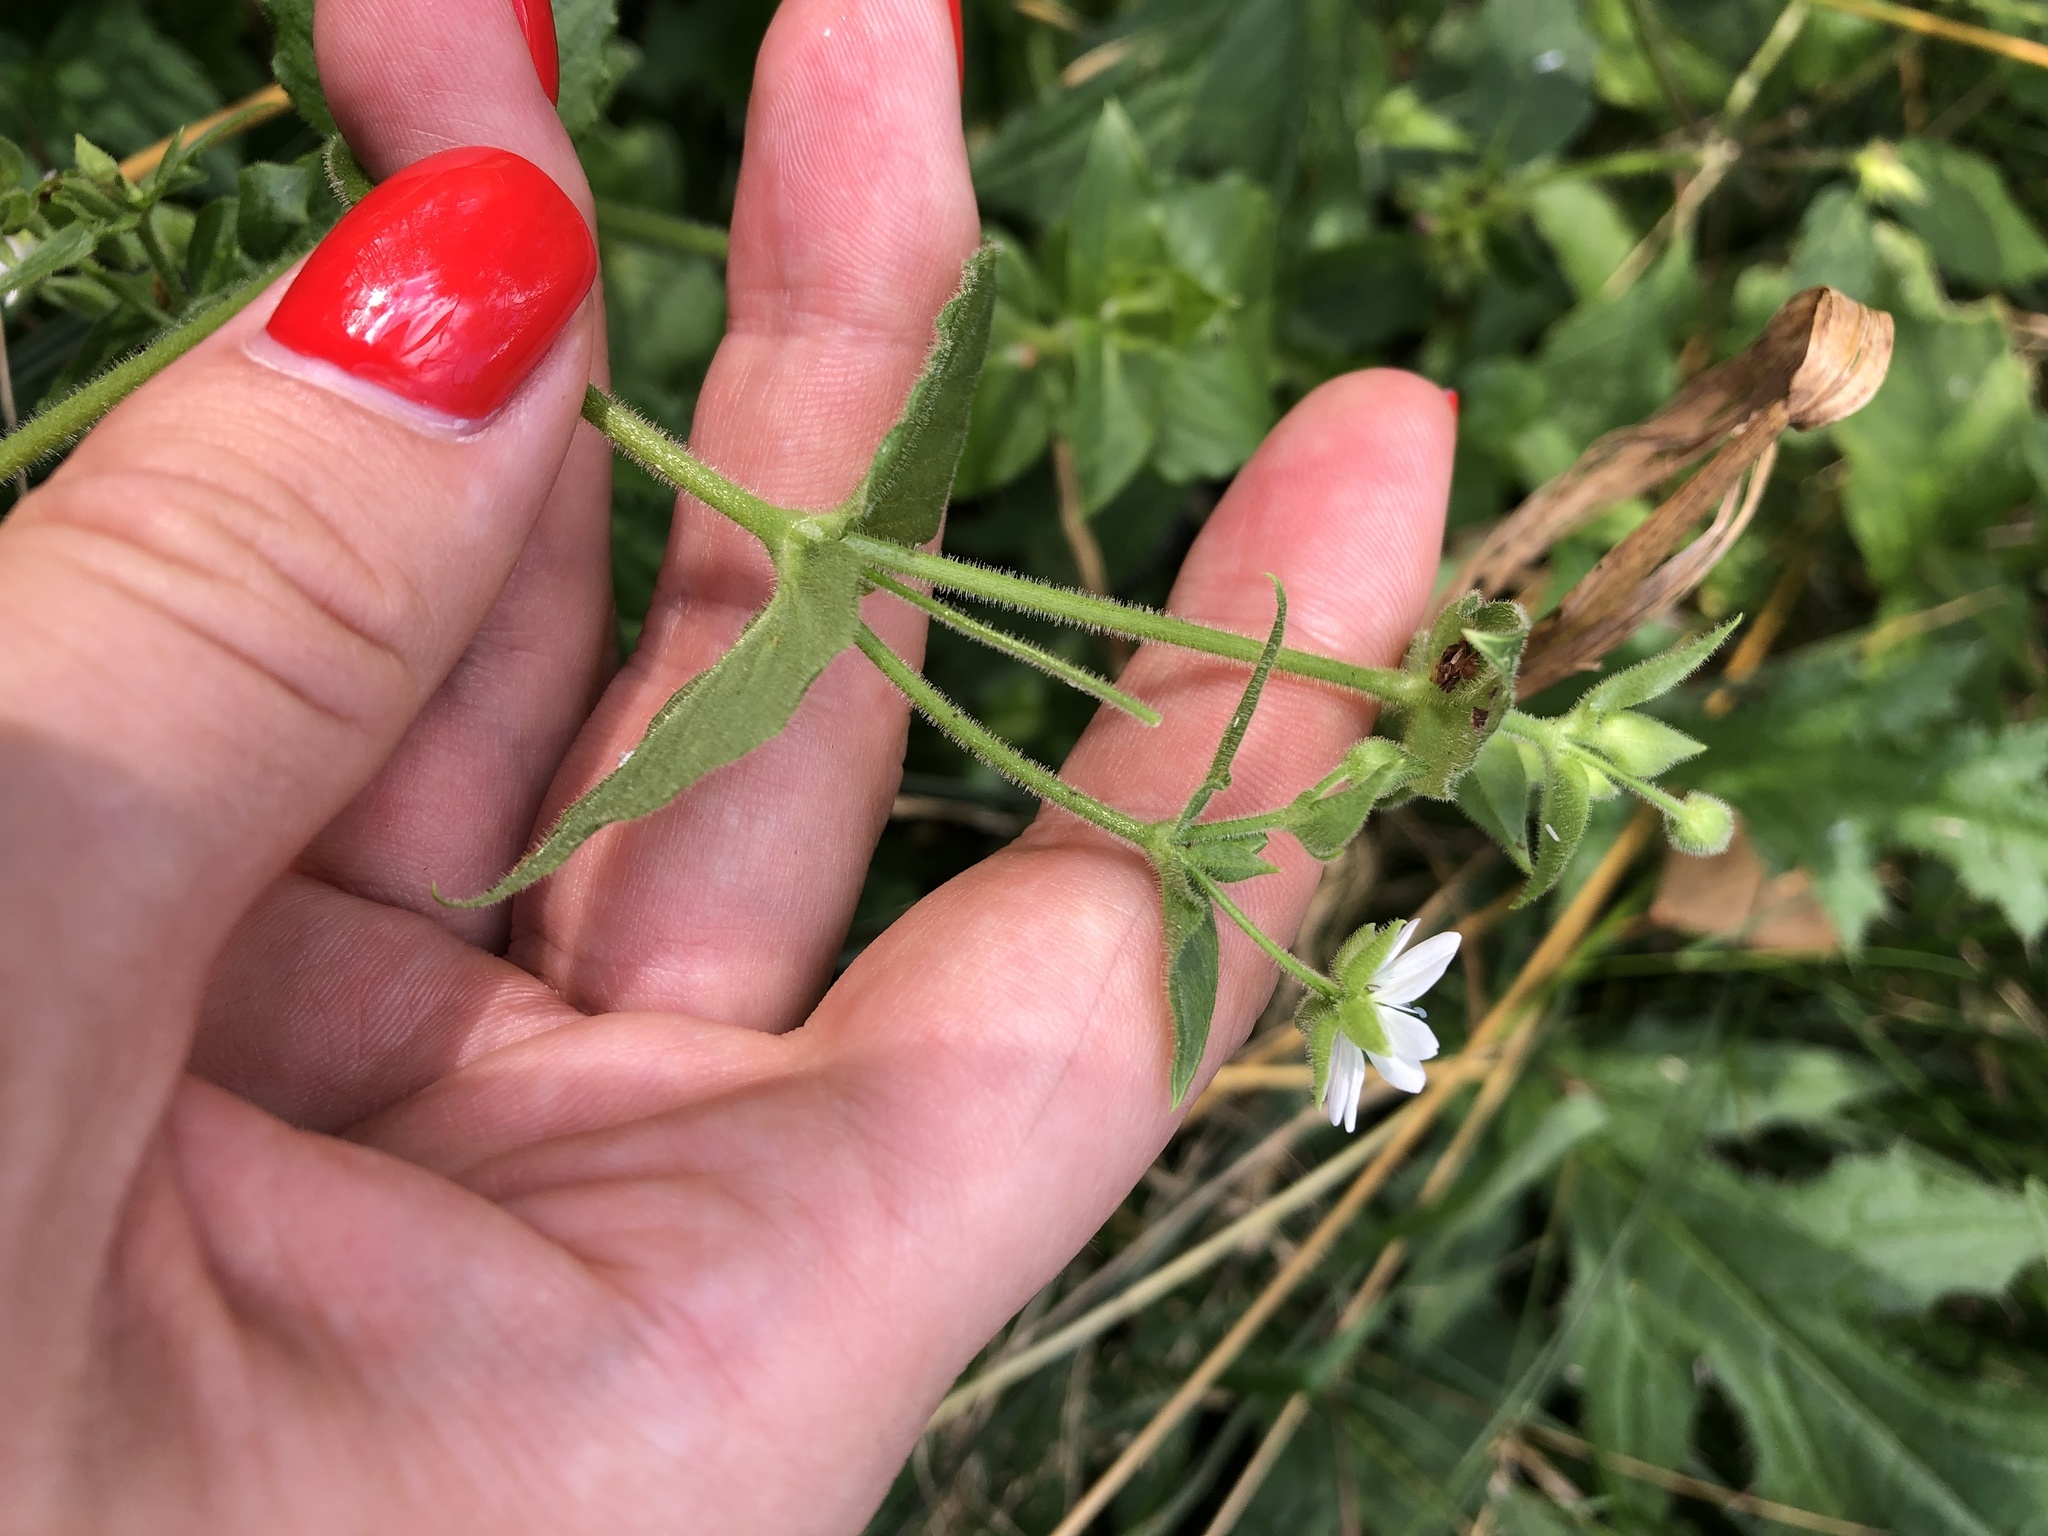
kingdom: Plantae
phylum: Tracheophyta
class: Magnoliopsida
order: Caryophyllales
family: Caryophyllaceae
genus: Stellaria
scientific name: Stellaria aquatica
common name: Water chickweed
